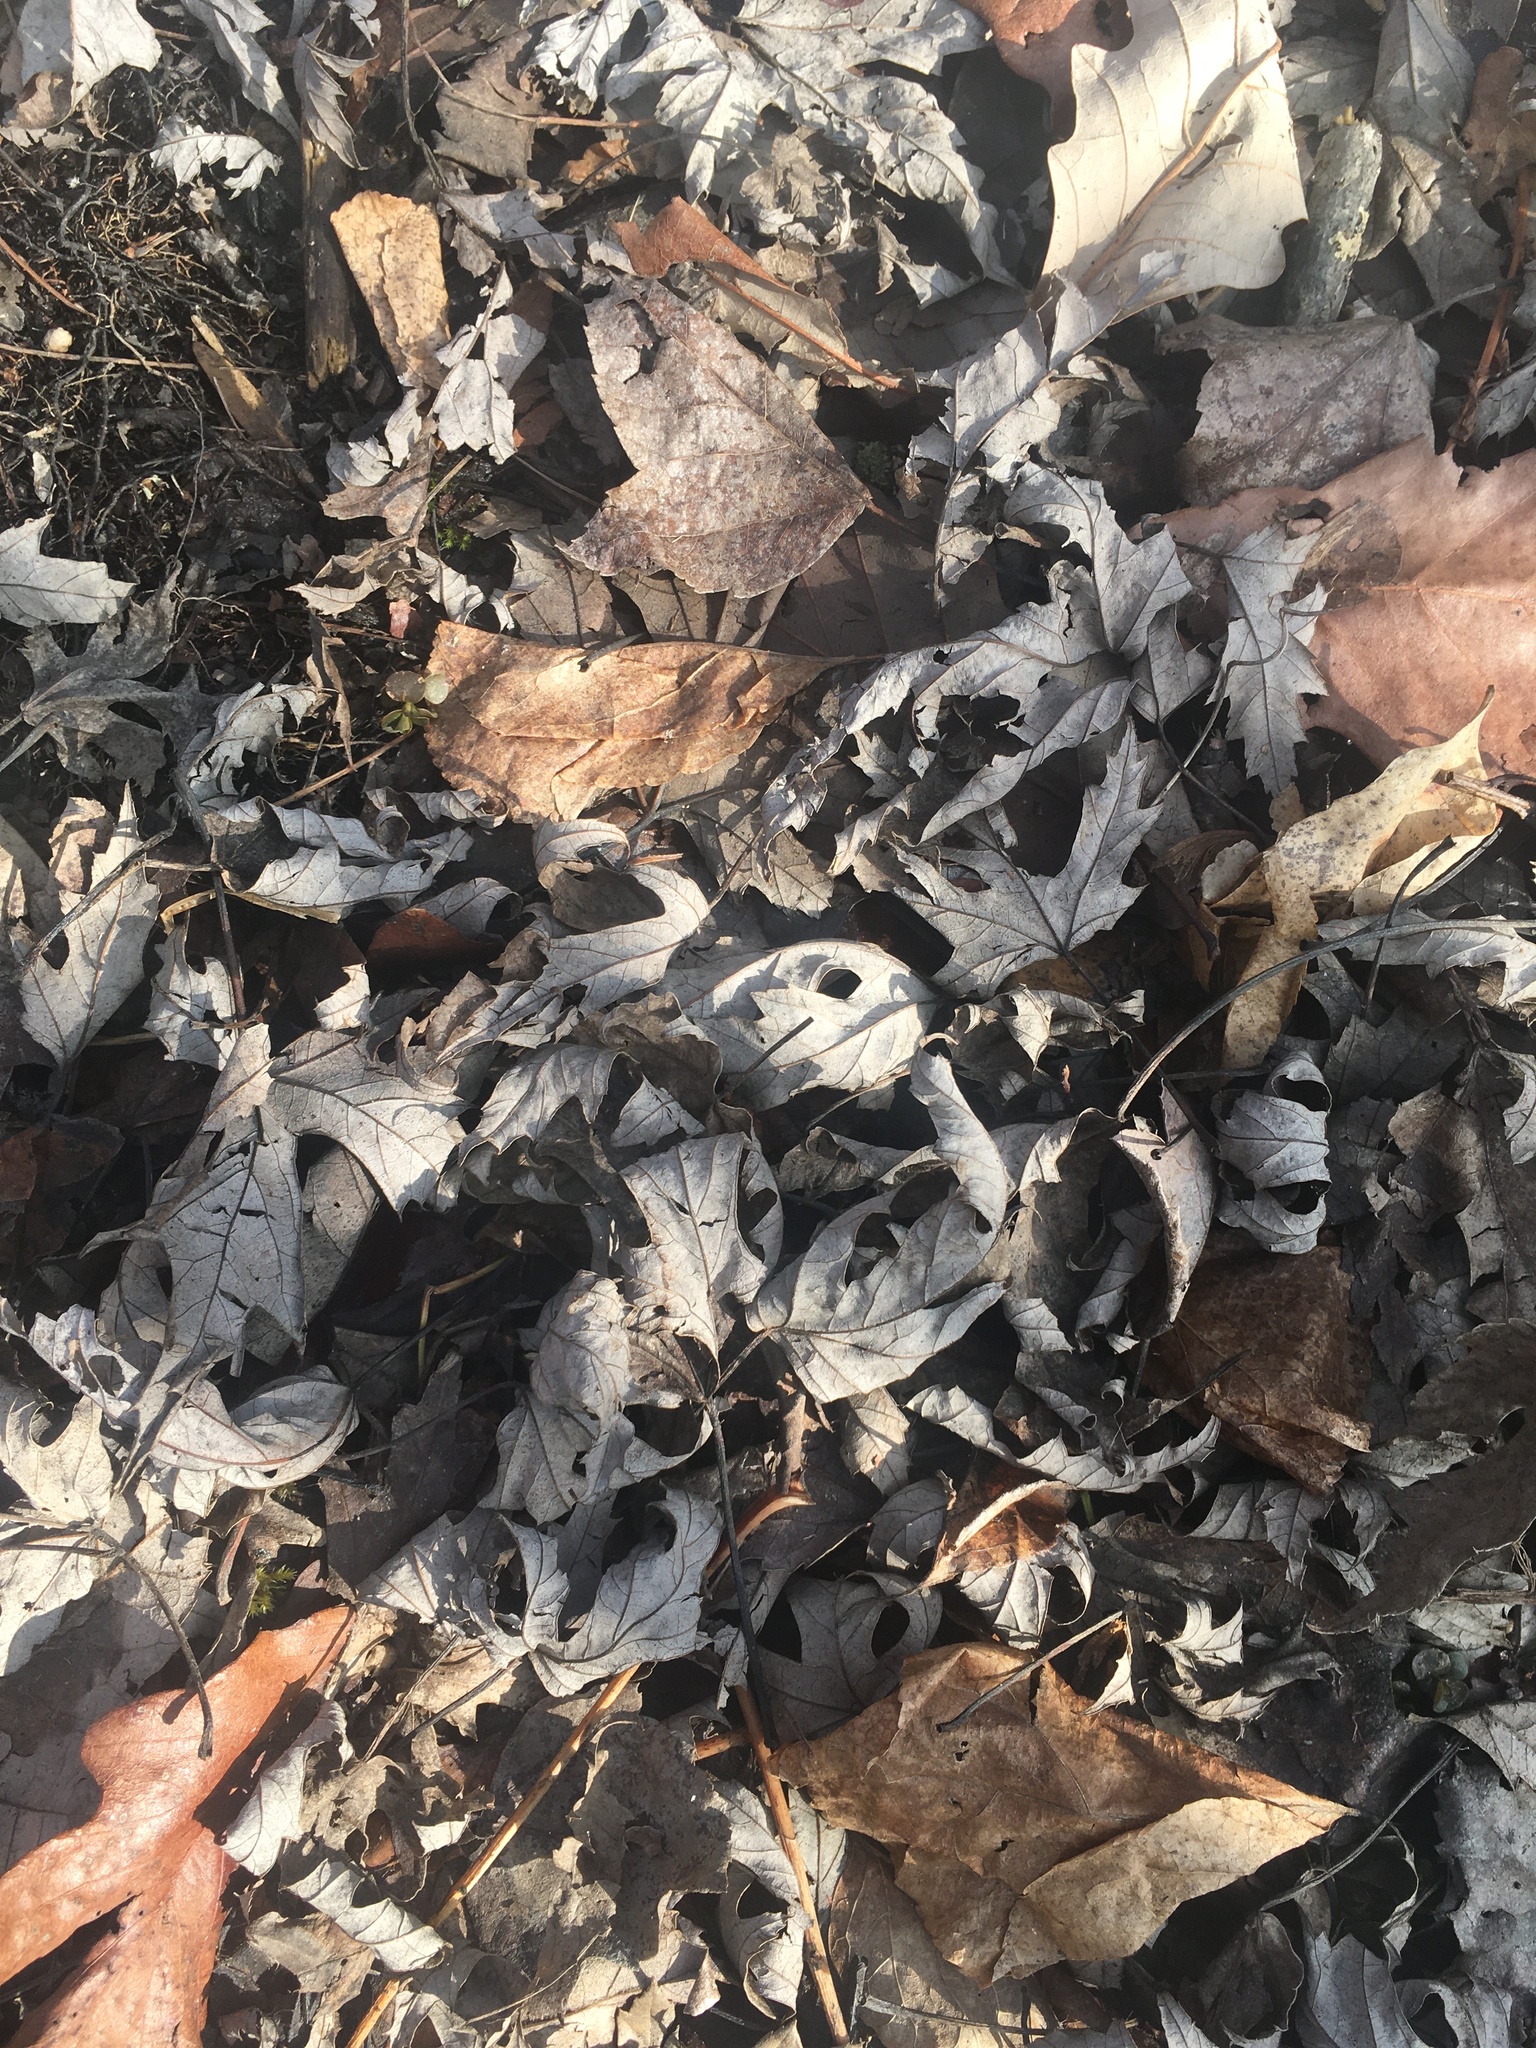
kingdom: Plantae
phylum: Tracheophyta
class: Magnoliopsida
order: Sapindales
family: Sapindaceae
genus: Acer
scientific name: Acer saccharinum
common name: Silver maple
